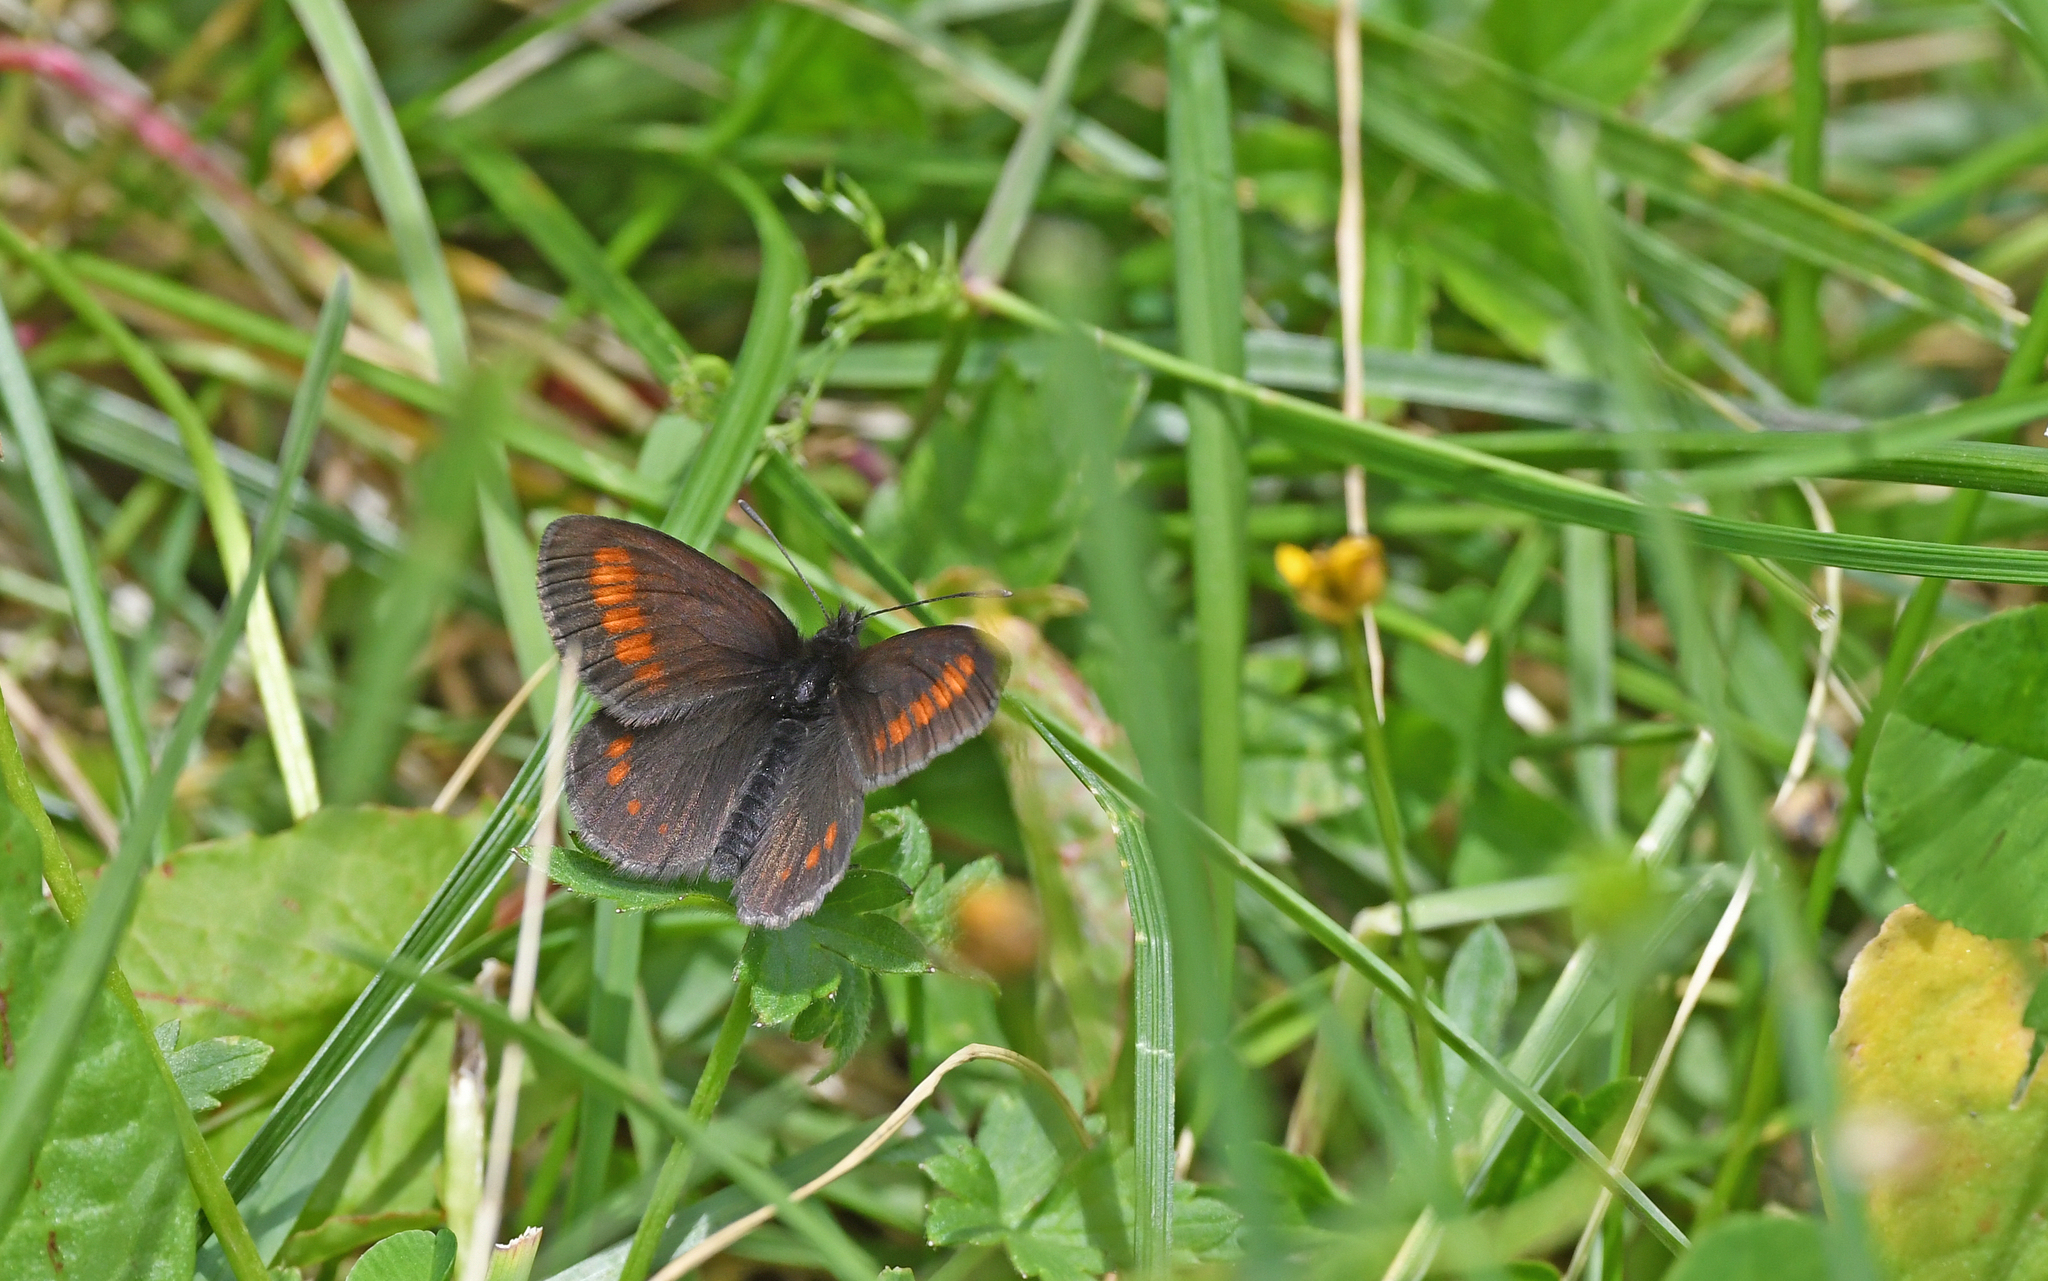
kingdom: Animalia
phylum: Arthropoda
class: Insecta
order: Lepidoptera
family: Nymphalidae
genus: Erebia
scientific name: Erebia pharte
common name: Blind ringlet
